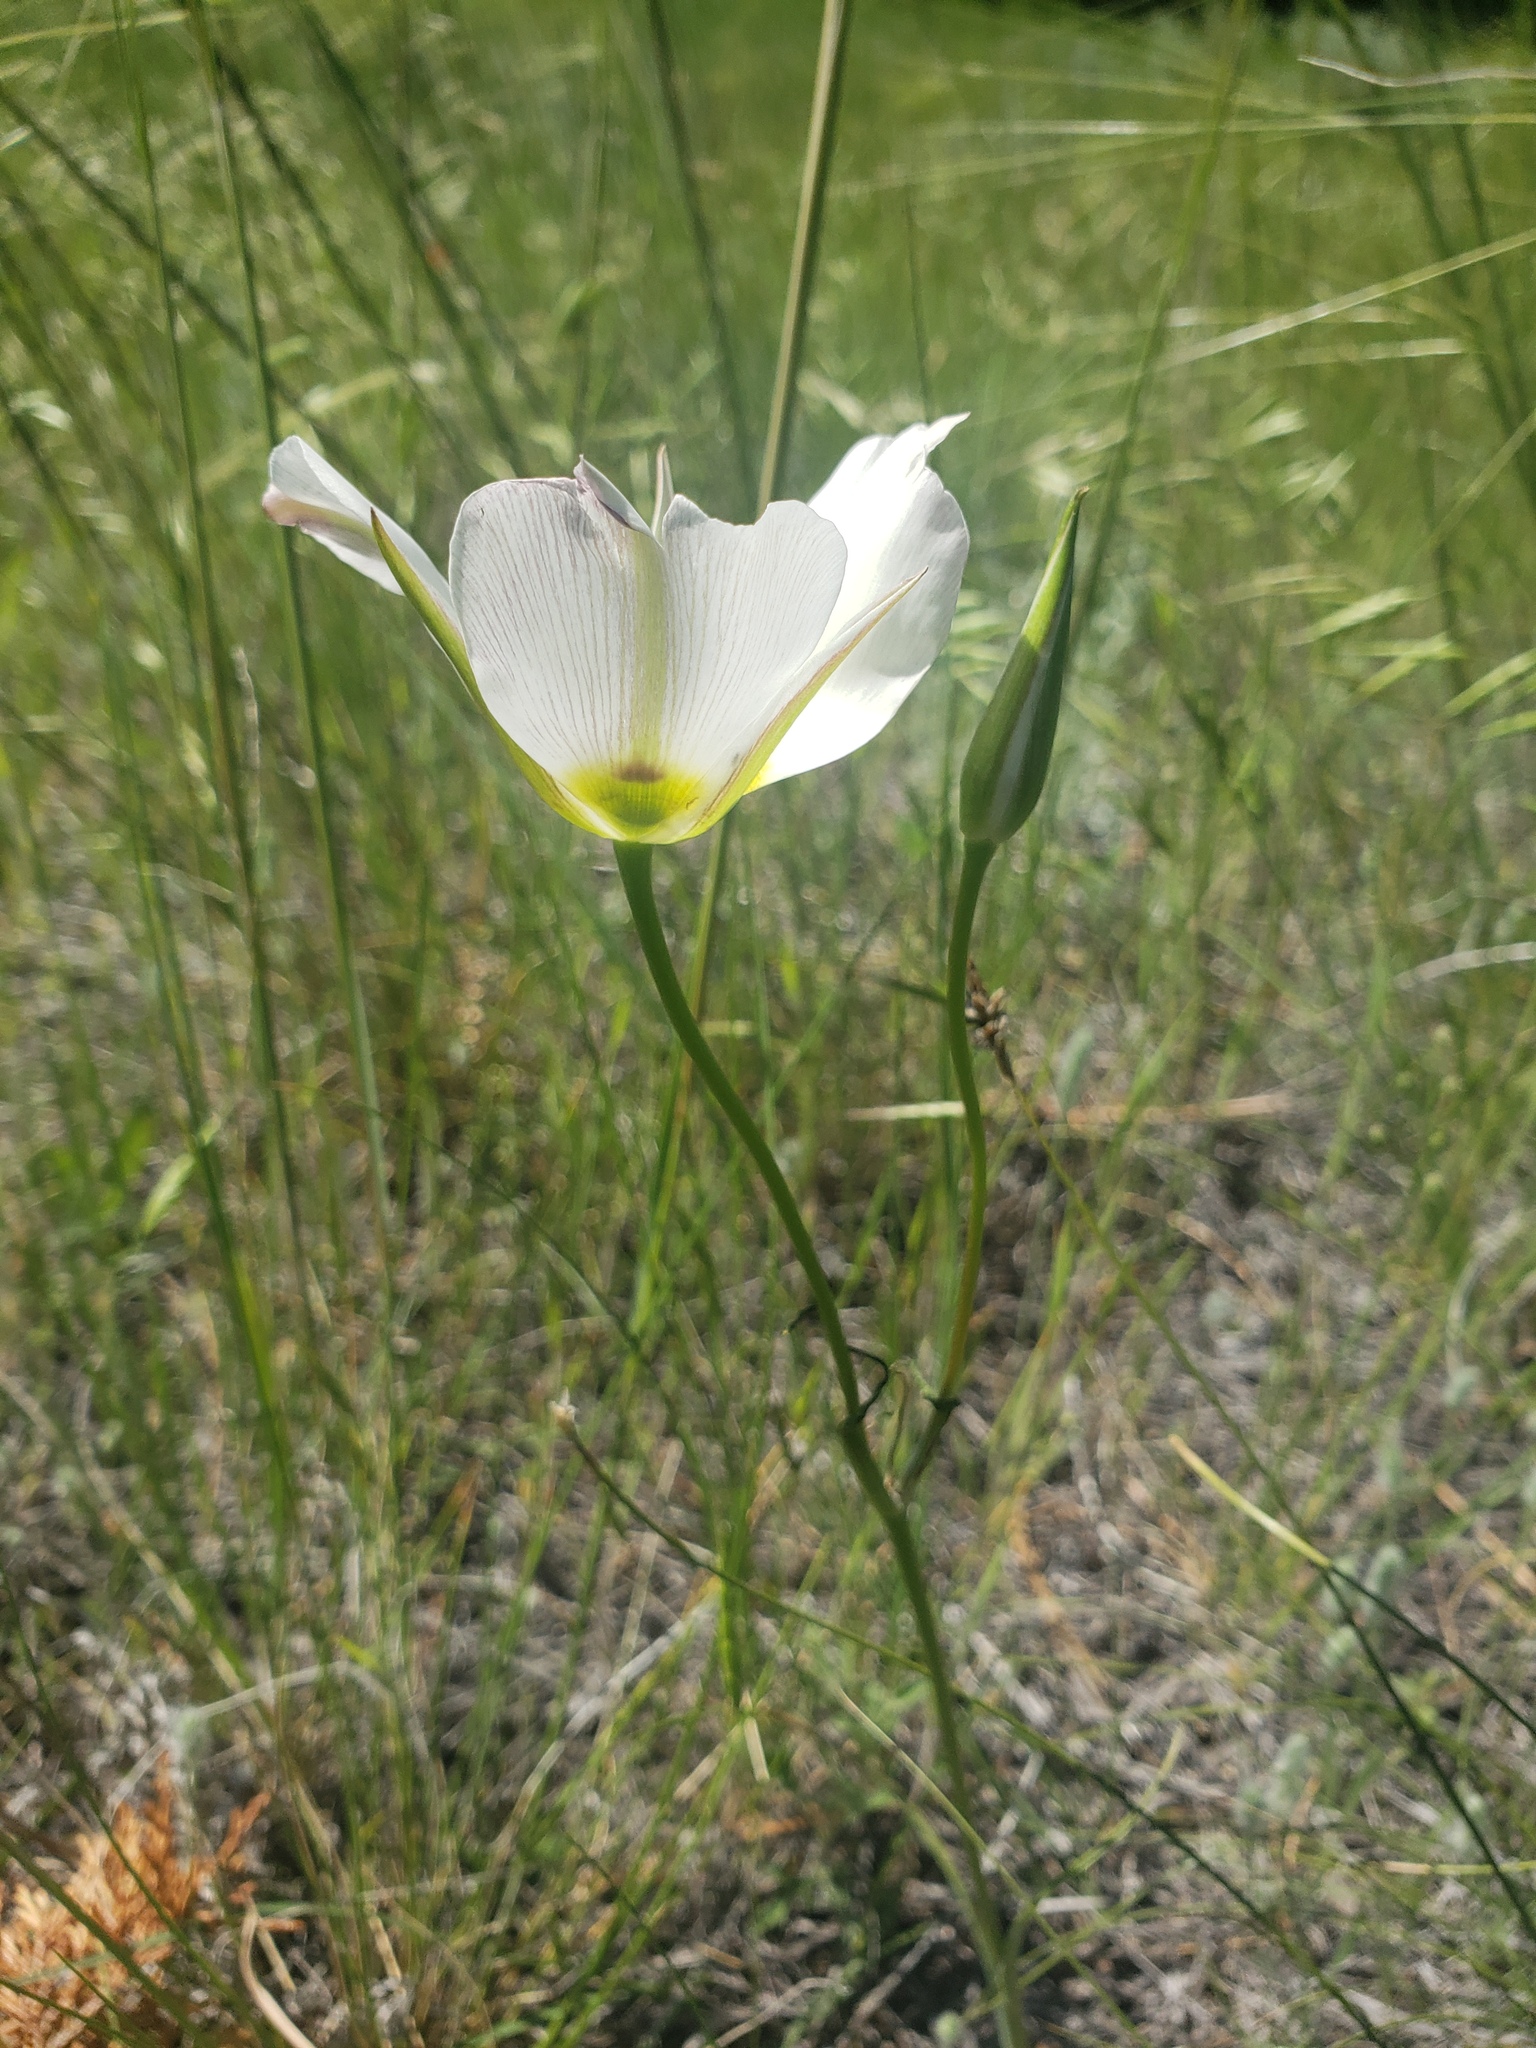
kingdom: Plantae
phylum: Tracheophyta
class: Liliopsida
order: Liliales
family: Liliaceae
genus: Calochortus
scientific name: Calochortus nuttallii
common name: Sego-lily
